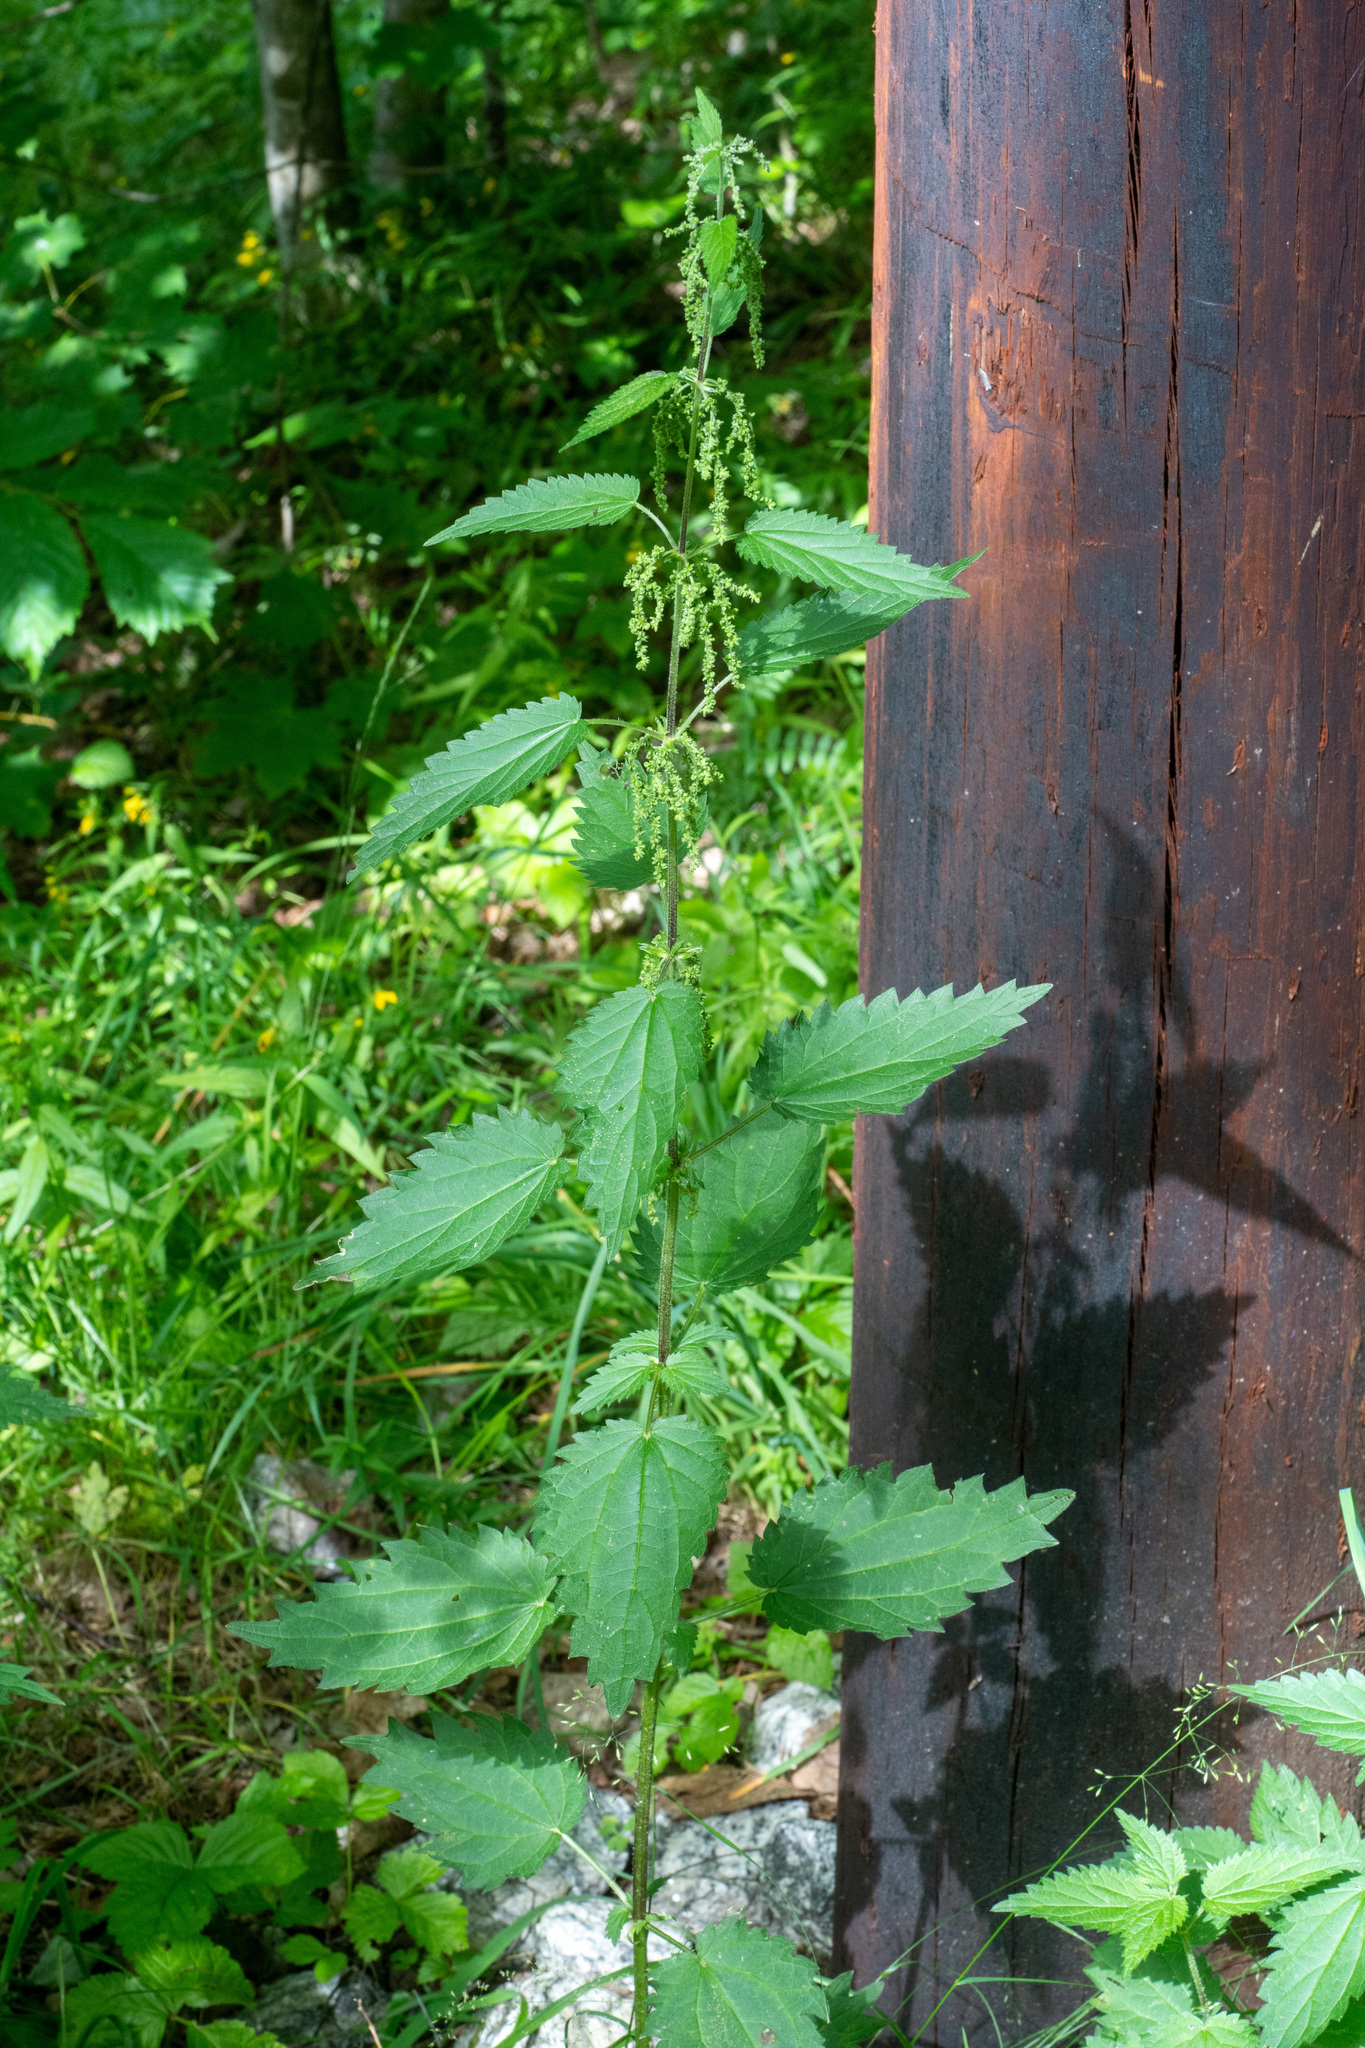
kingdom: Plantae
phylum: Tracheophyta
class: Magnoliopsida
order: Rosales
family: Urticaceae
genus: Urtica
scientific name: Urtica dioica
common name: Common nettle
